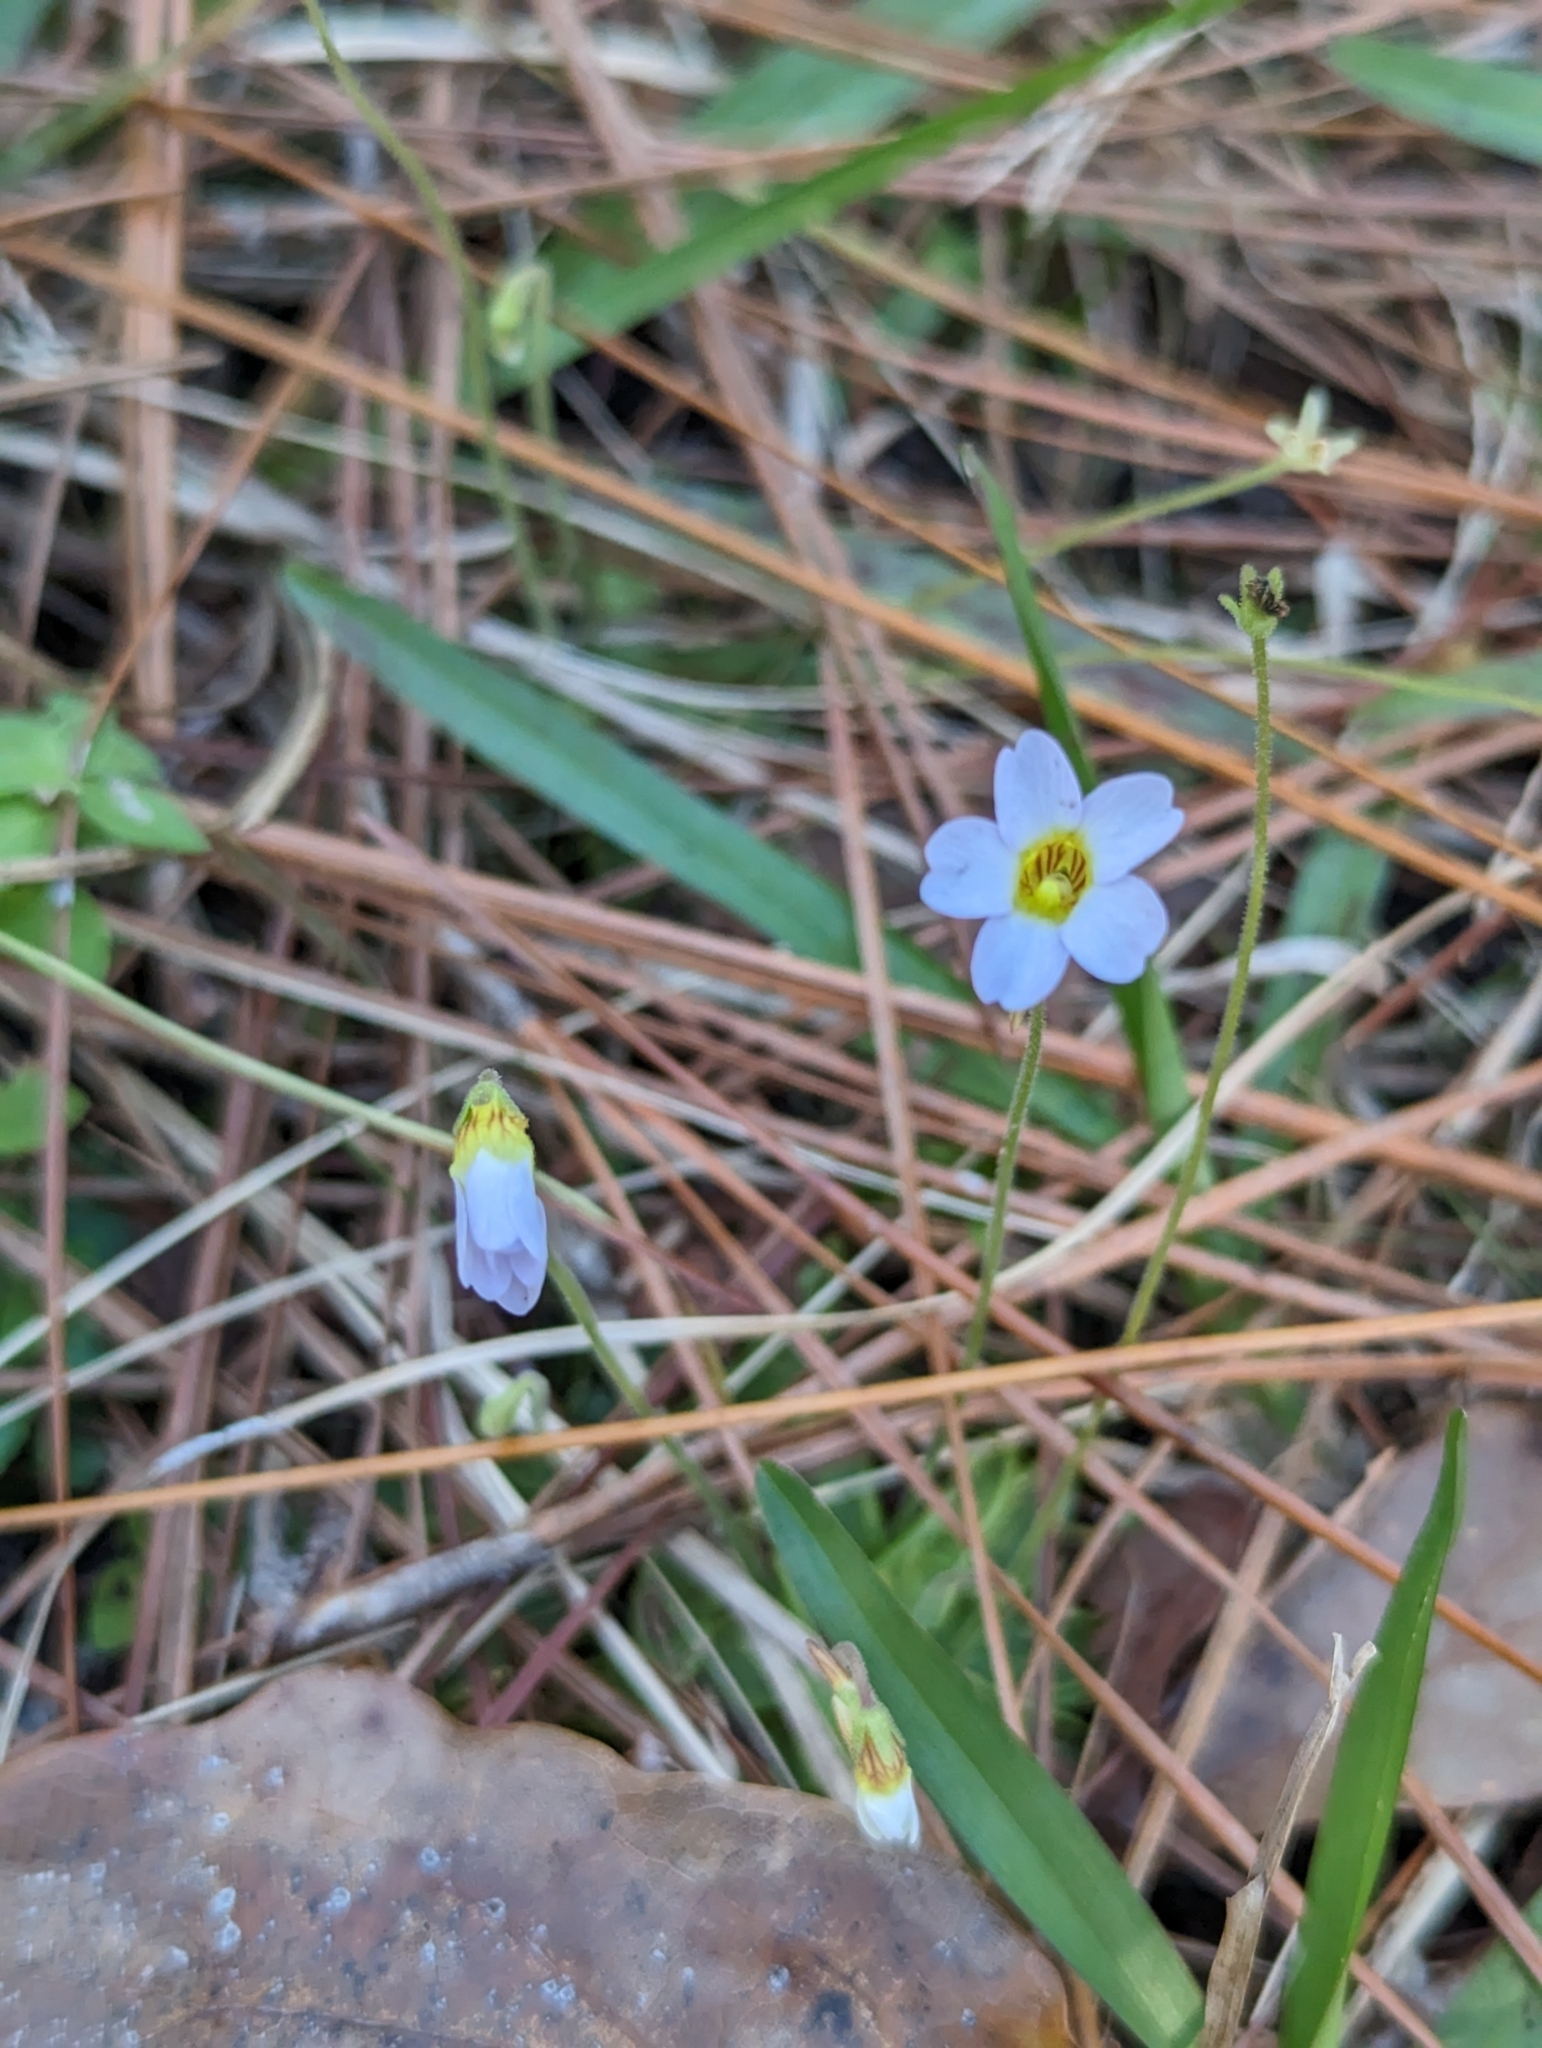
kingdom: Plantae
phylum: Tracheophyta
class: Magnoliopsida
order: Lamiales
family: Lentibulariaceae
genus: Pinguicula
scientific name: Pinguicula pumila
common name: Small butterwort
